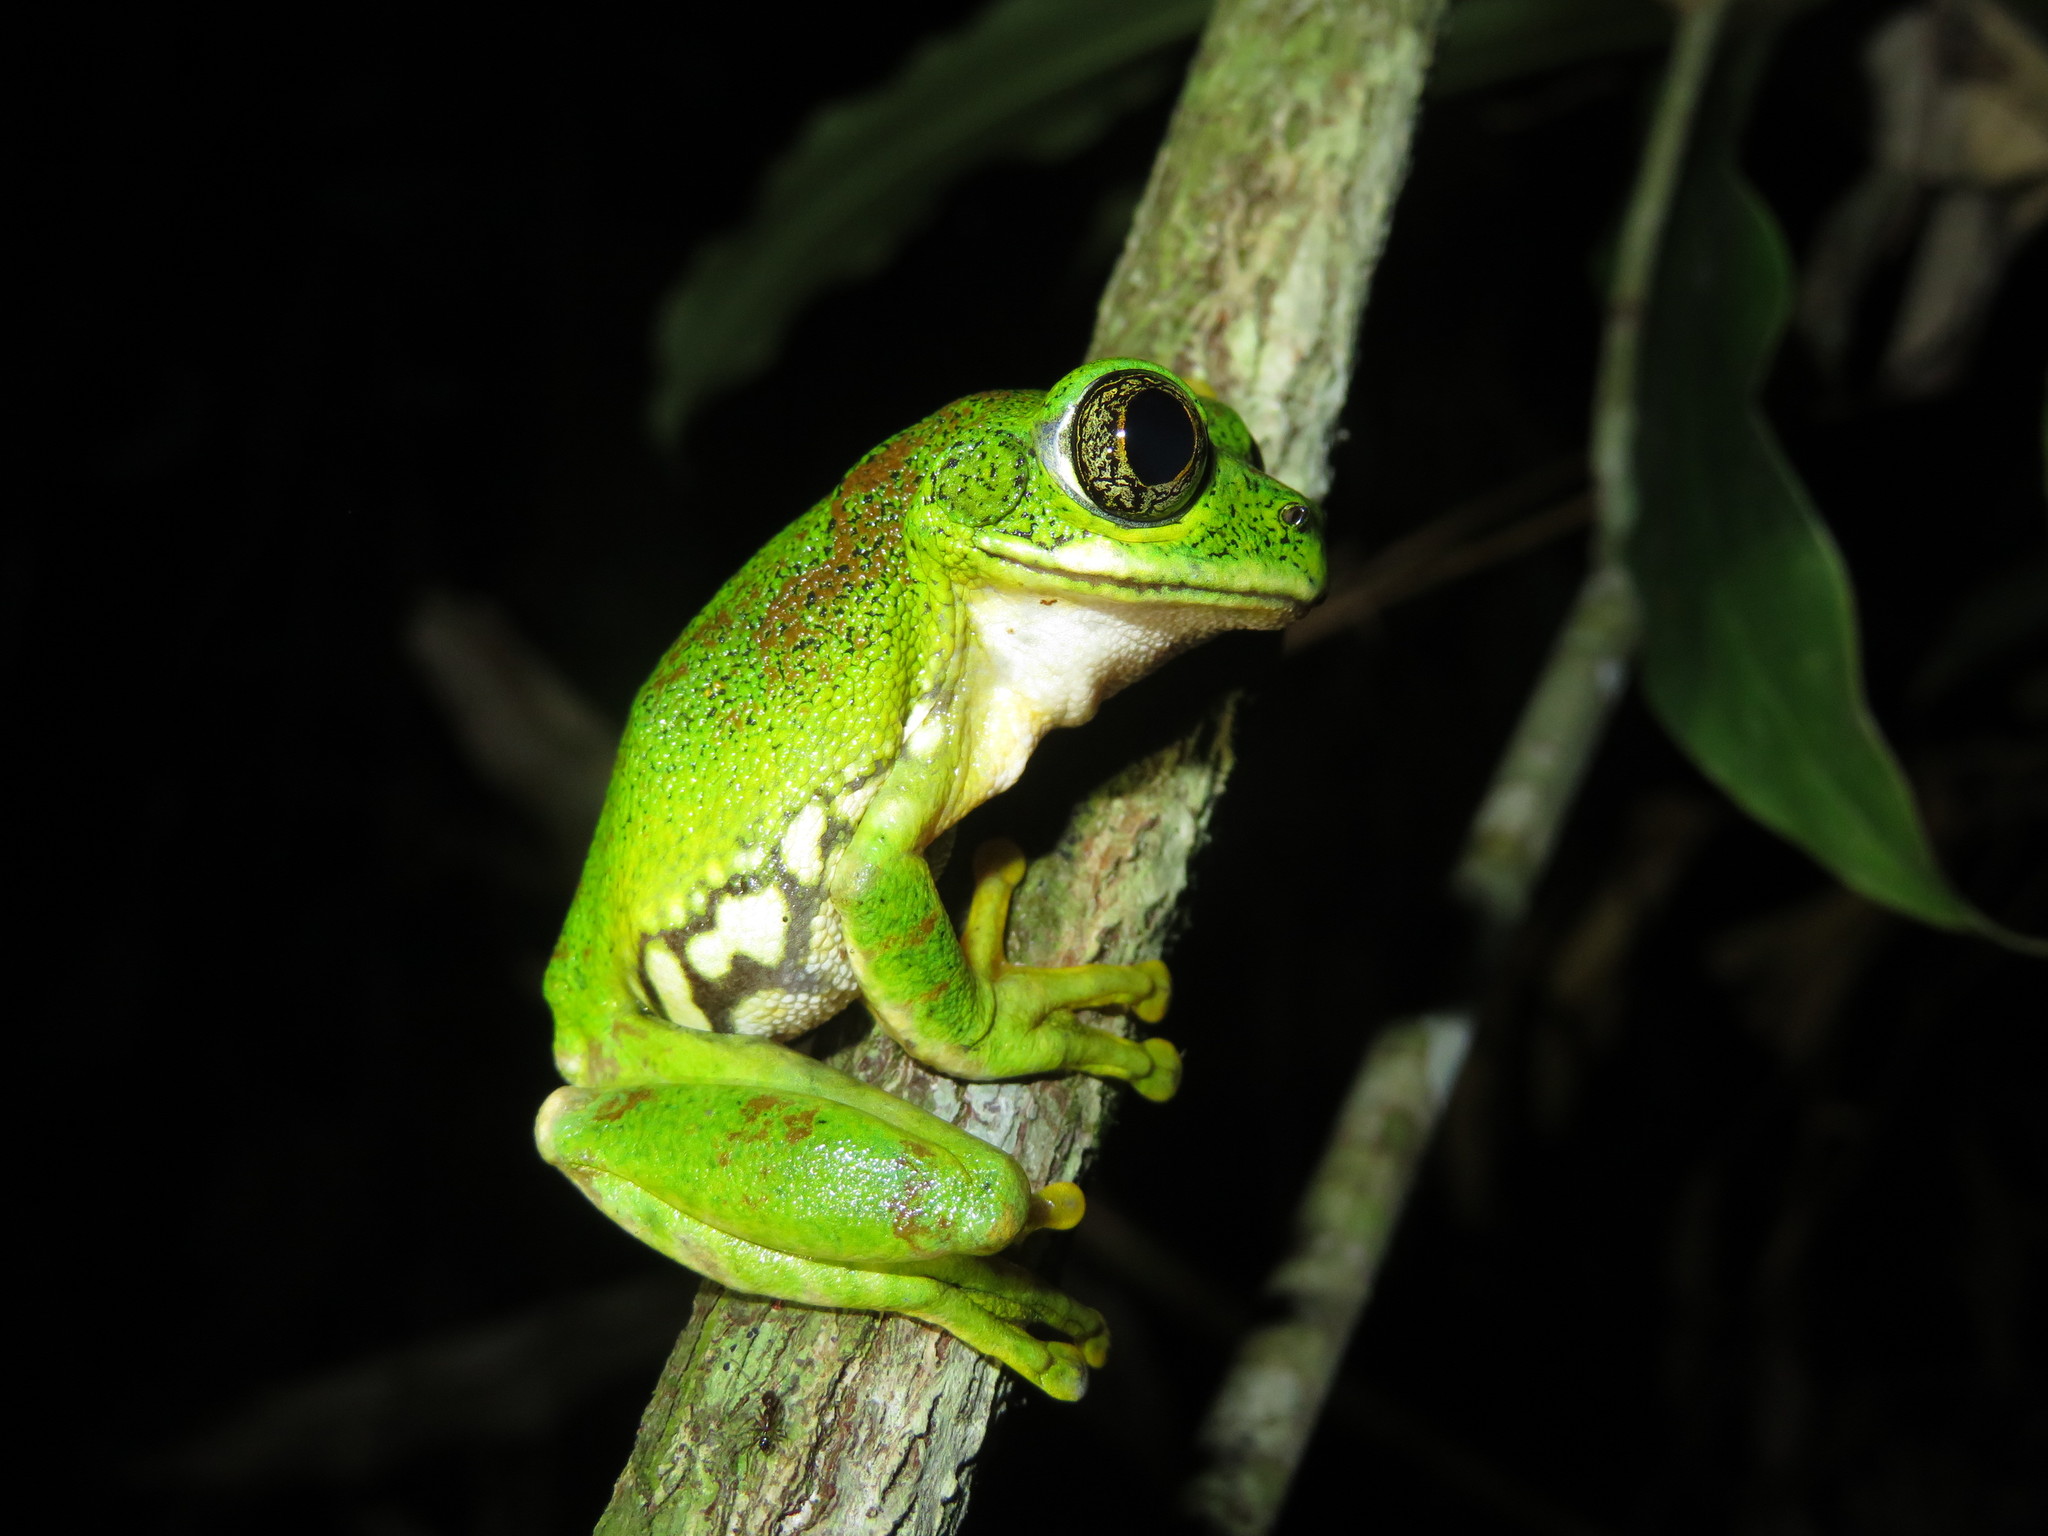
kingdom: Animalia
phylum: Chordata
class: Amphibia
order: Anura
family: Arthroleptidae
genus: Leptopelis
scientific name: Leptopelis vermiculatus
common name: Amani forest treefrog
